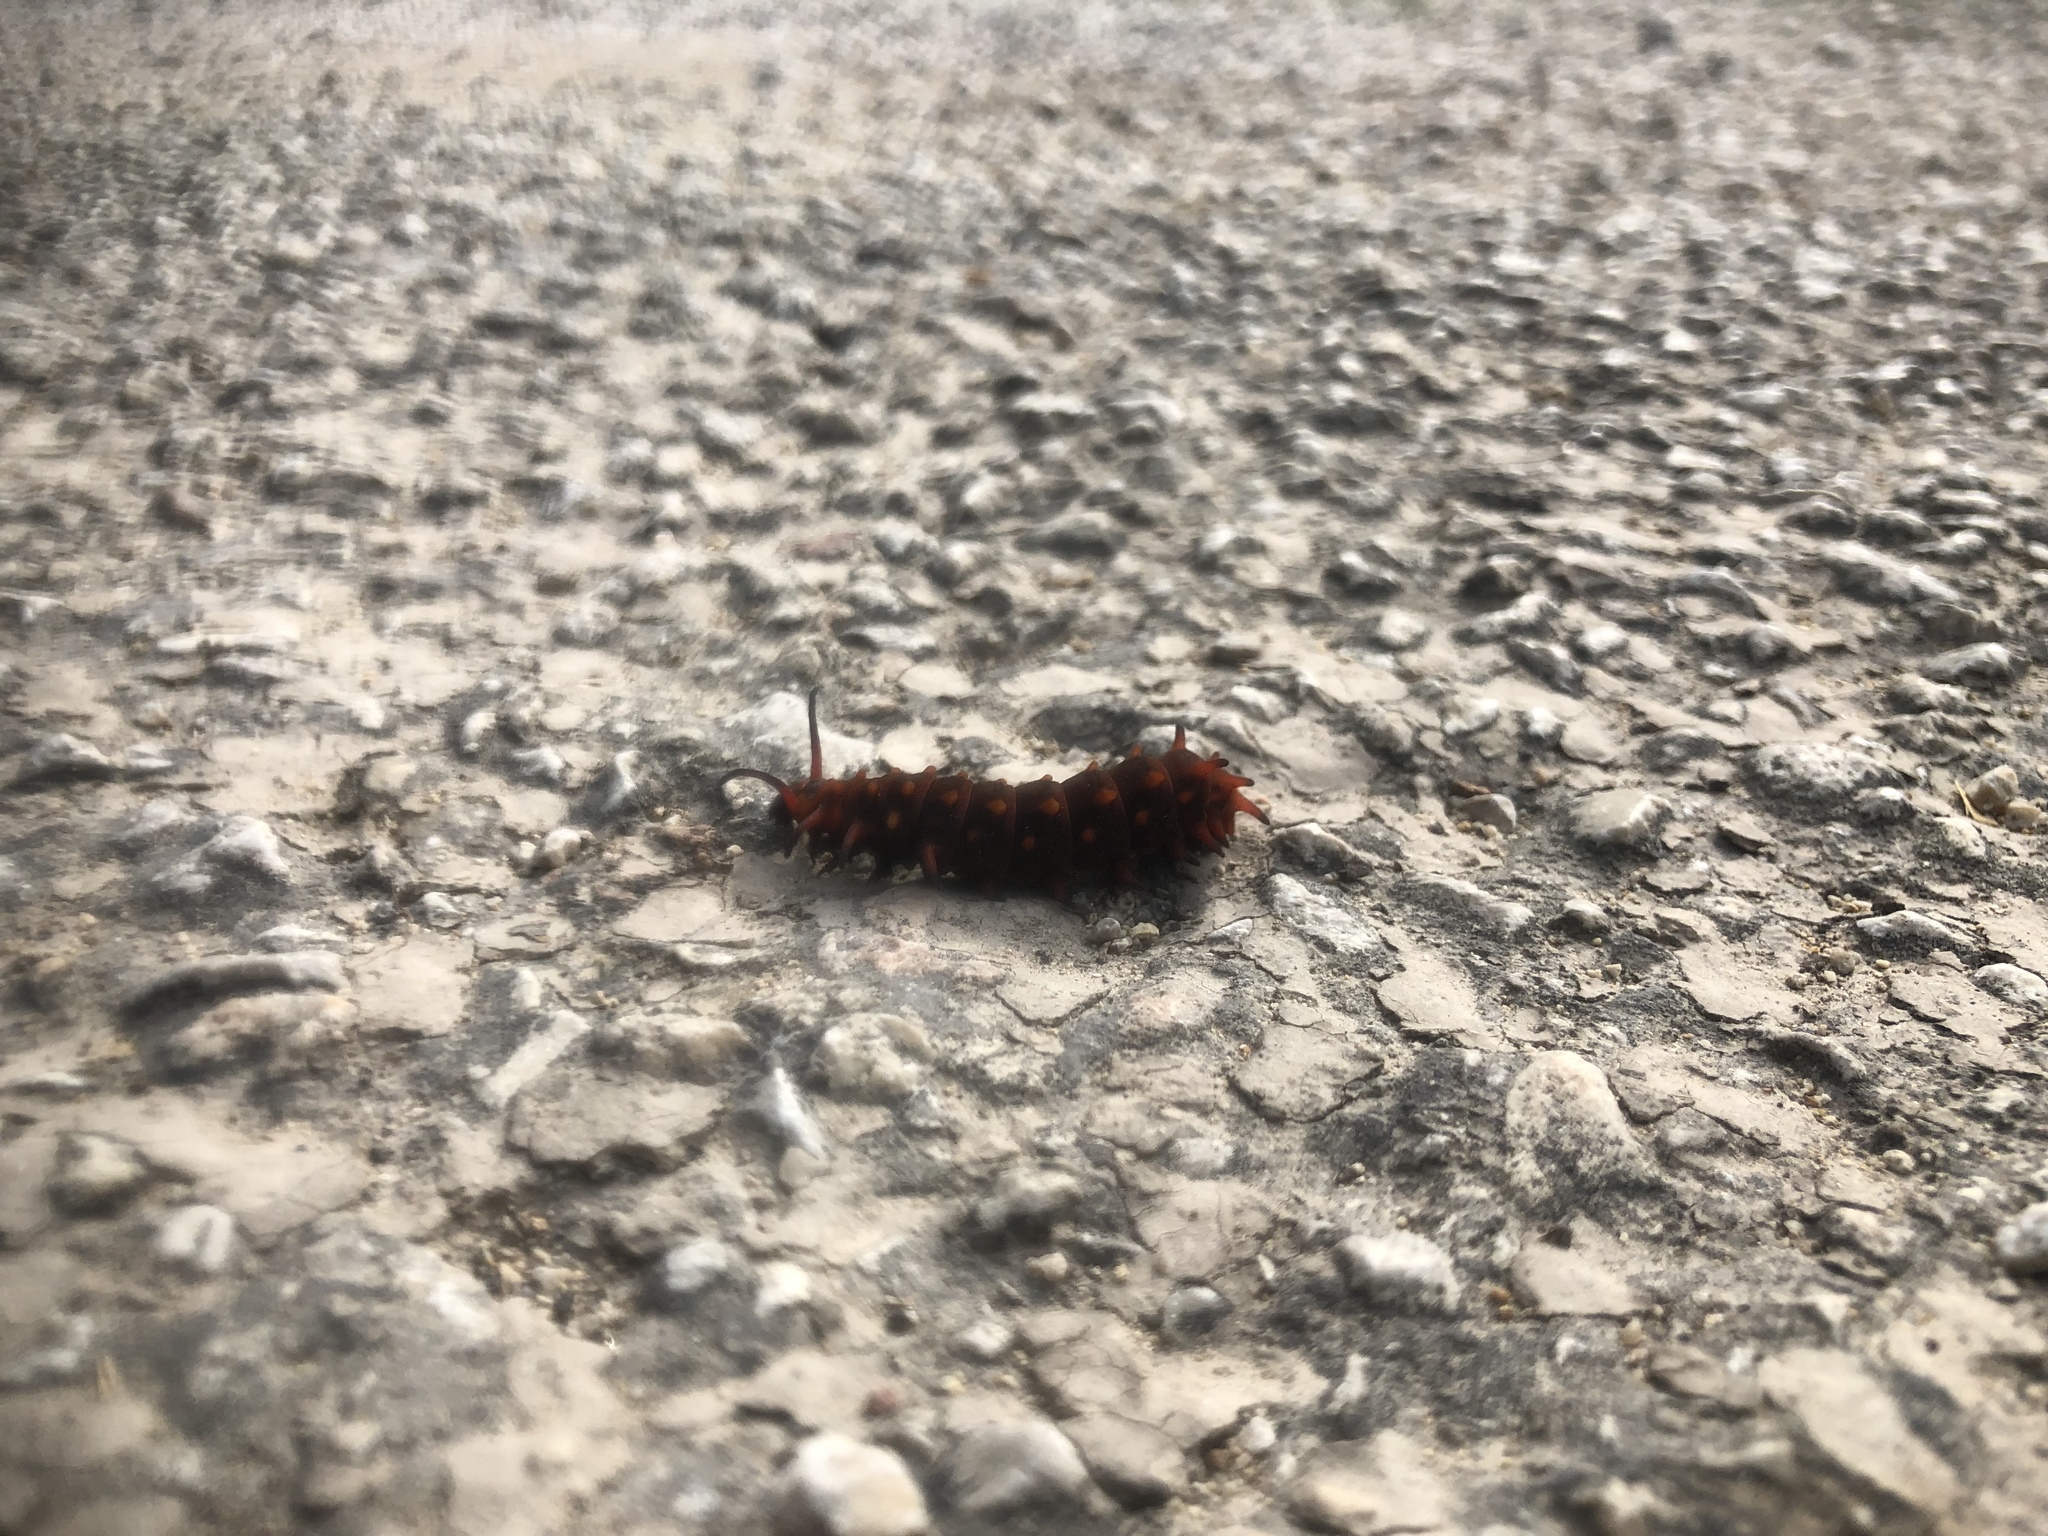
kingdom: Animalia
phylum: Arthropoda
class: Insecta
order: Lepidoptera
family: Papilionidae
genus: Battus
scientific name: Battus philenor
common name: Pipevine swallowtail
